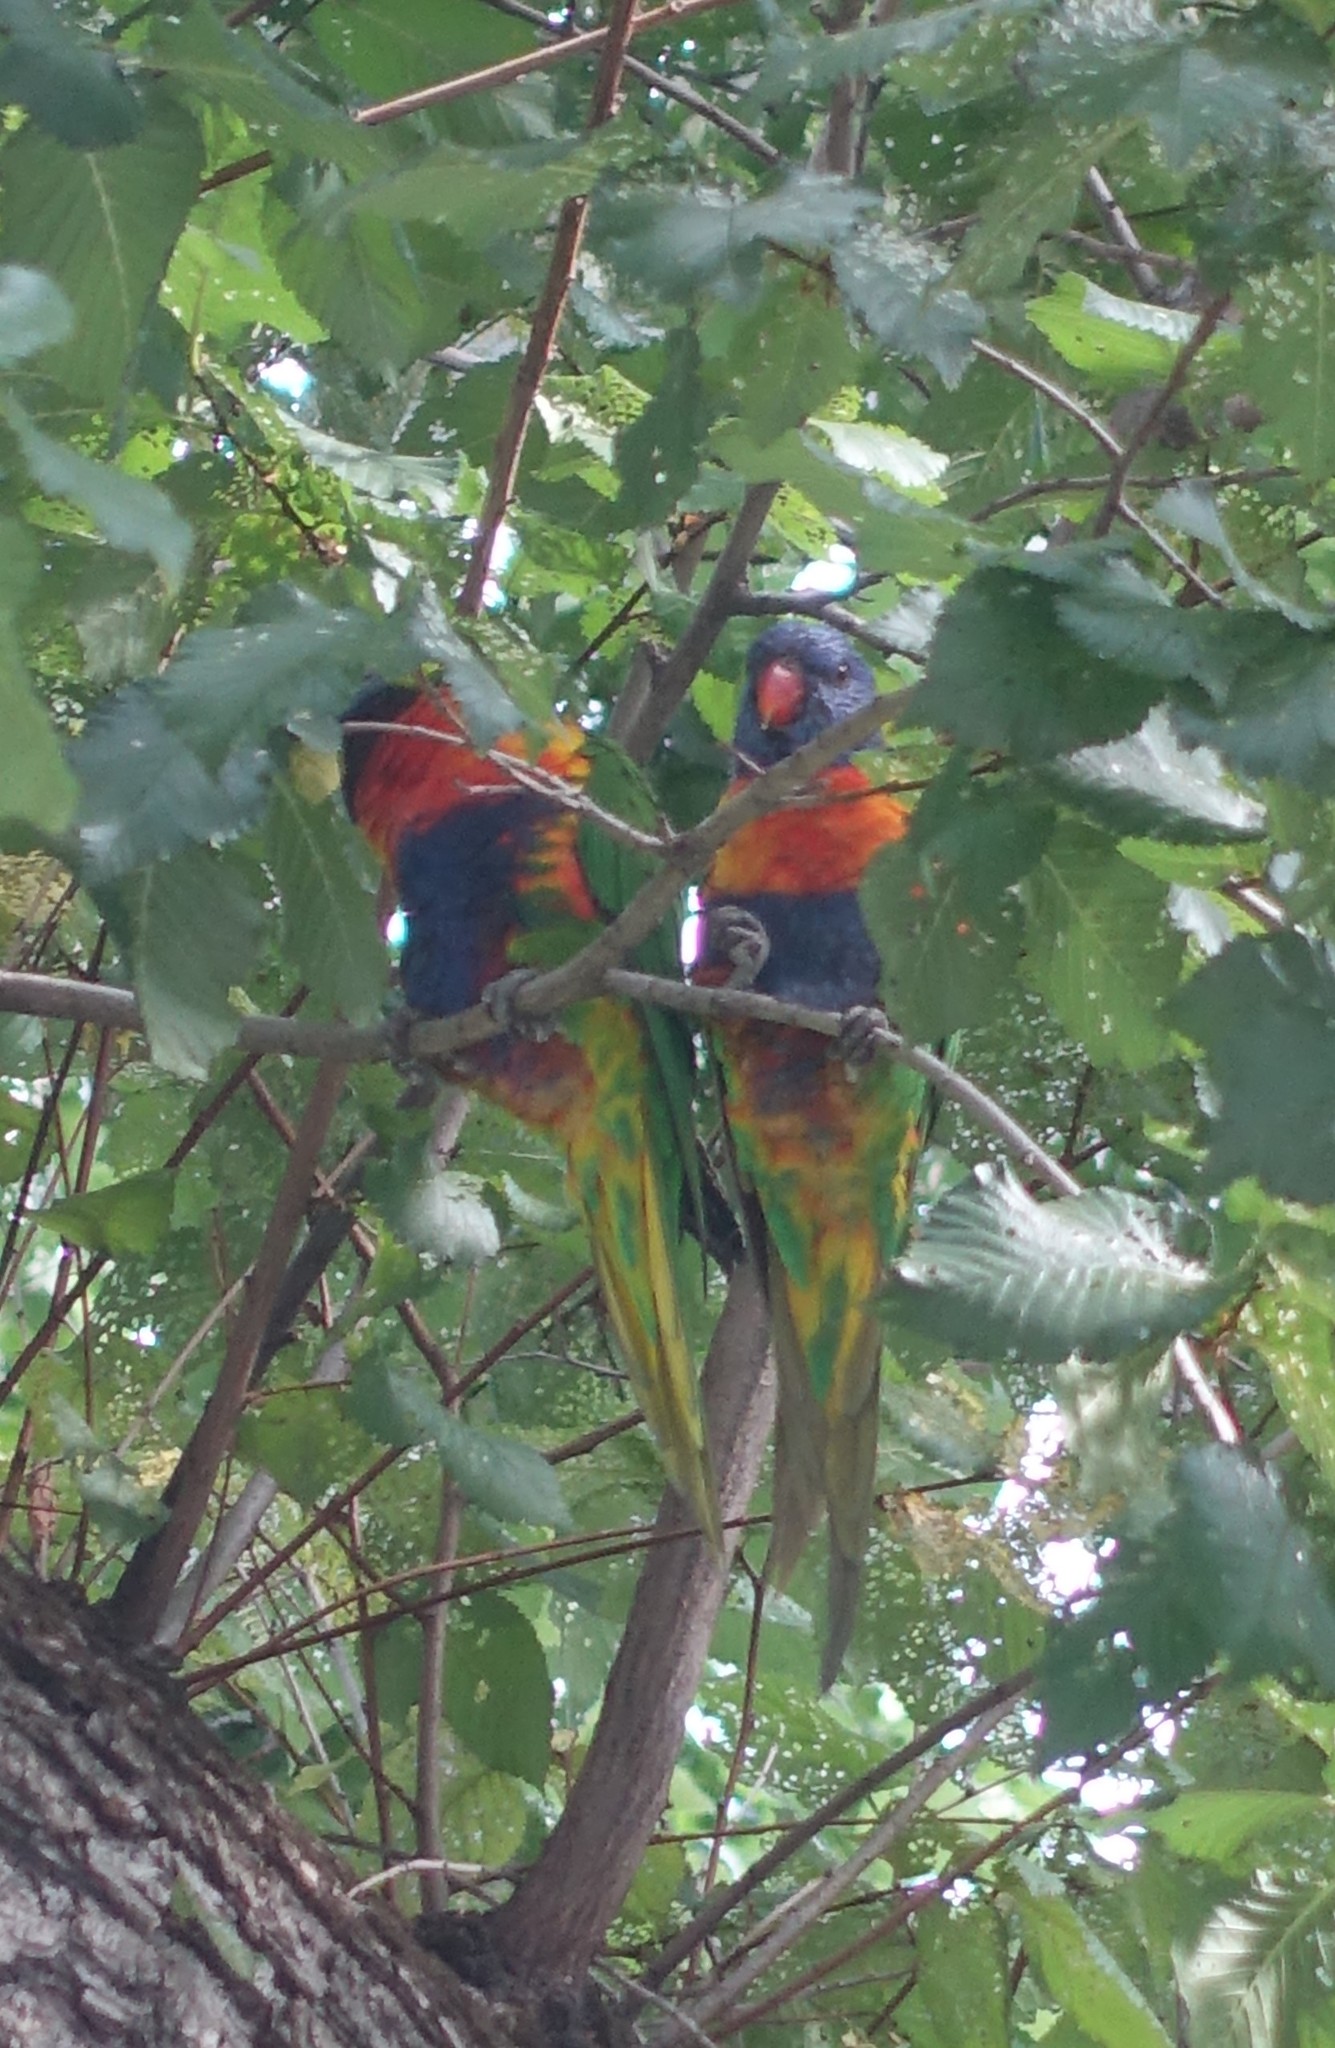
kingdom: Animalia
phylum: Chordata
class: Aves
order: Psittaciformes
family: Psittacidae
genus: Trichoglossus
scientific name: Trichoglossus haematodus
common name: Coconut lorikeet
